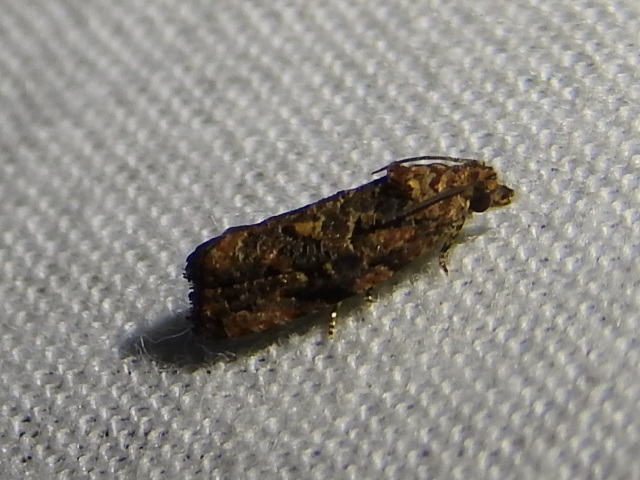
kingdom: Animalia
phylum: Arthropoda
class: Insecta
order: Lepidoptera
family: Tortricidae
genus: Endothenia
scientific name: Endothenia hebesana
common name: Verbena bud moth
